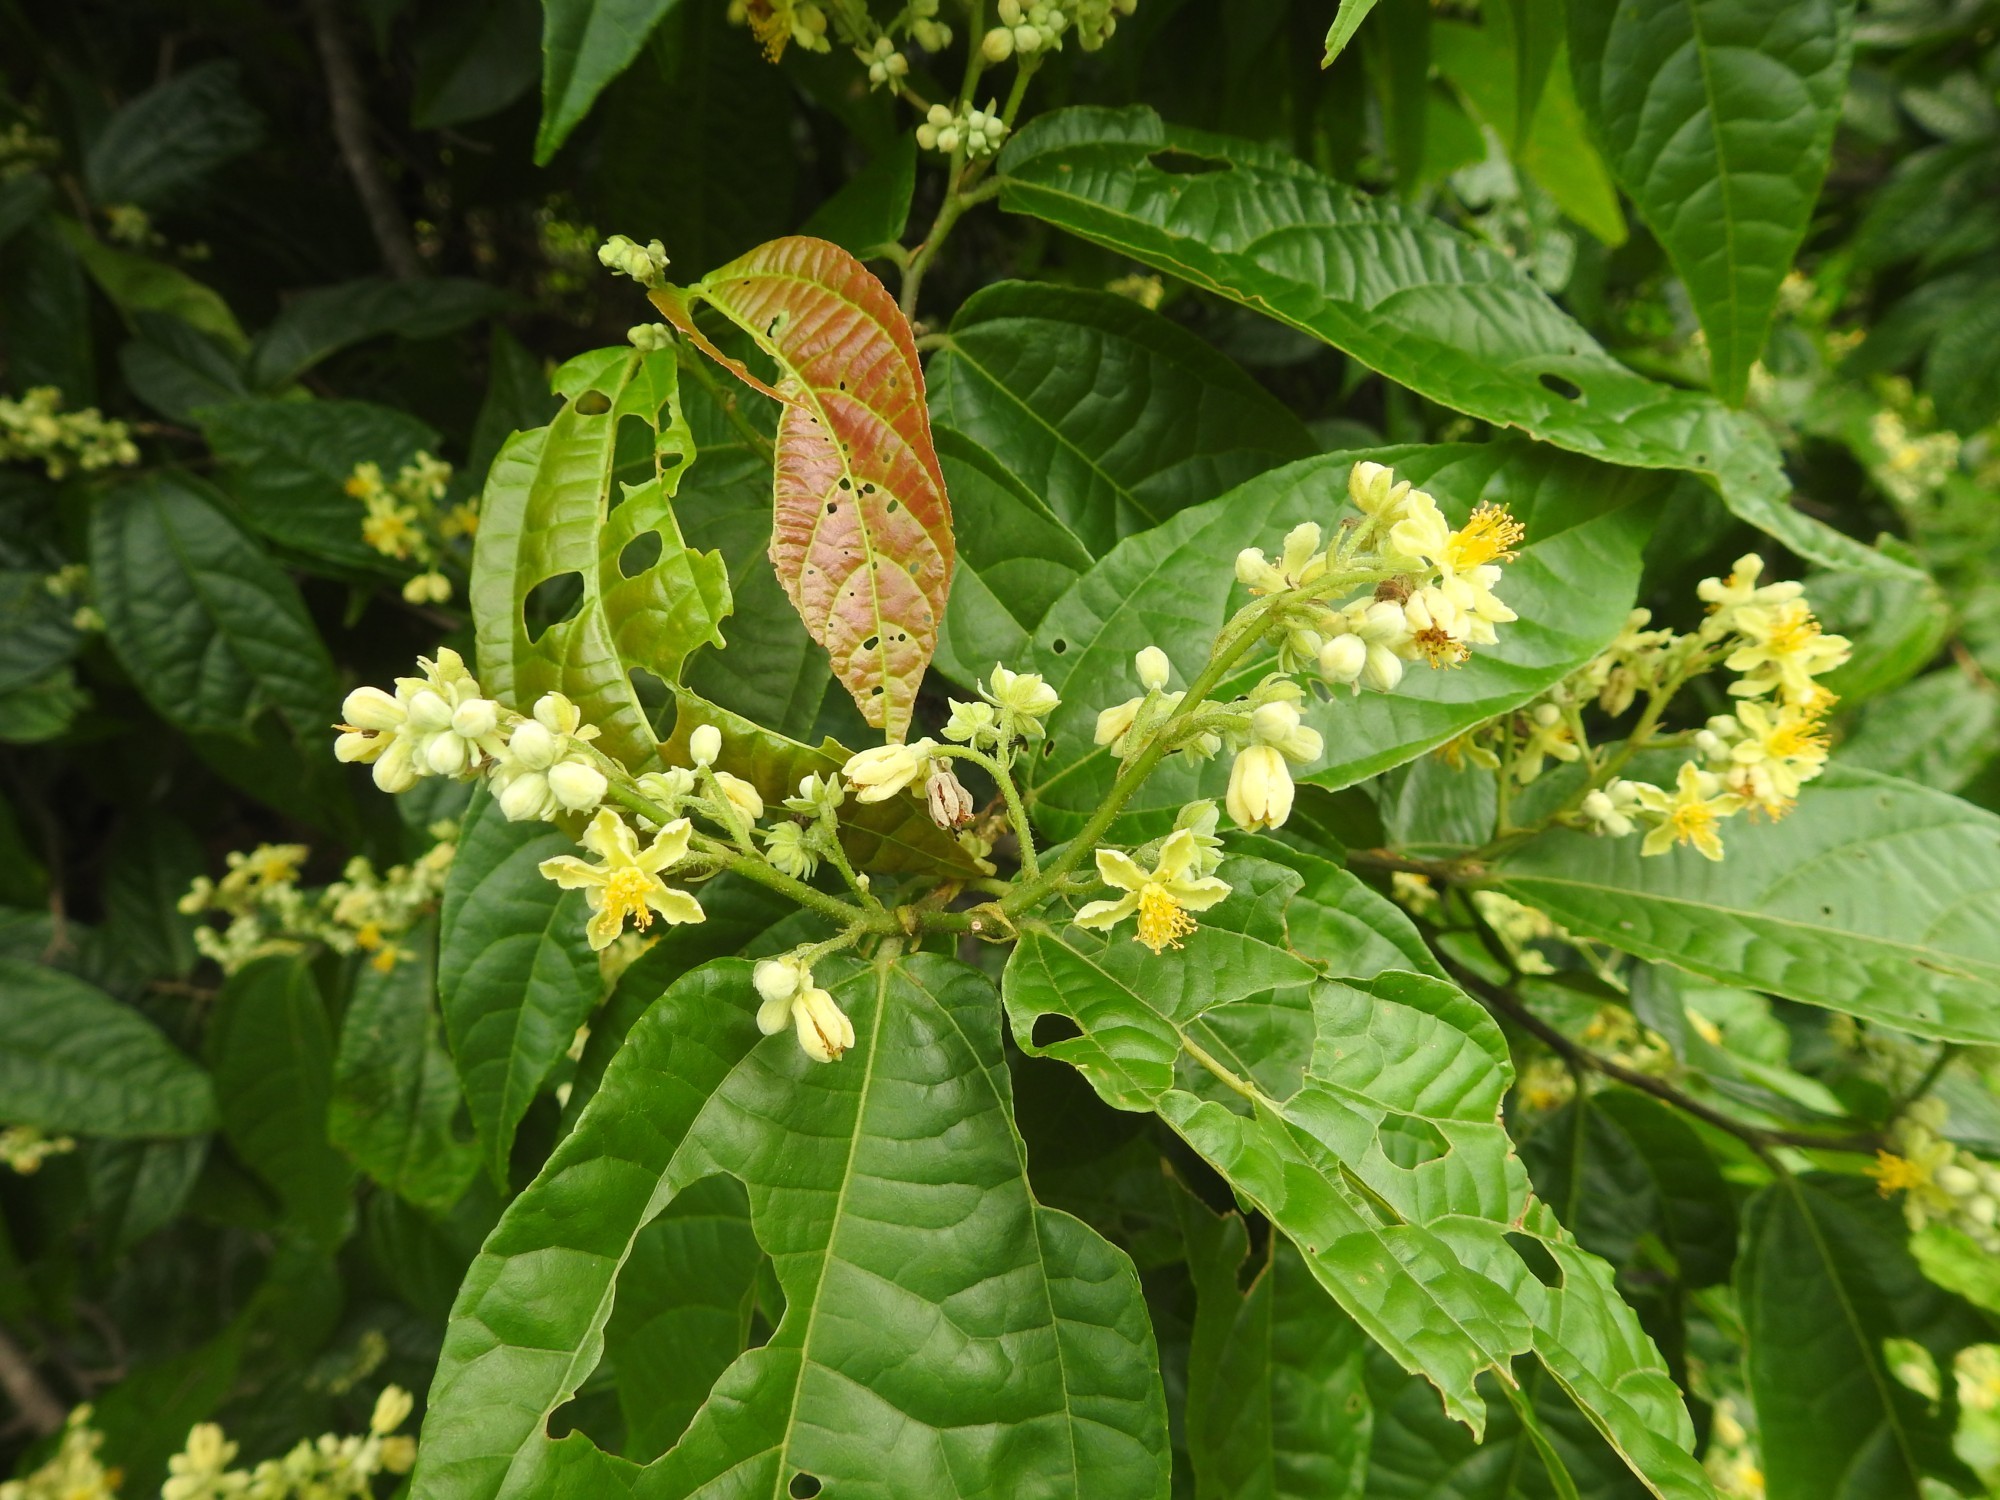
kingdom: Plantae
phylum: Tracheophyta
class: Magnoliopsida
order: Malvales
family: Malvaceae
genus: Microcos
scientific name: Microcos paniculata
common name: Microcos
